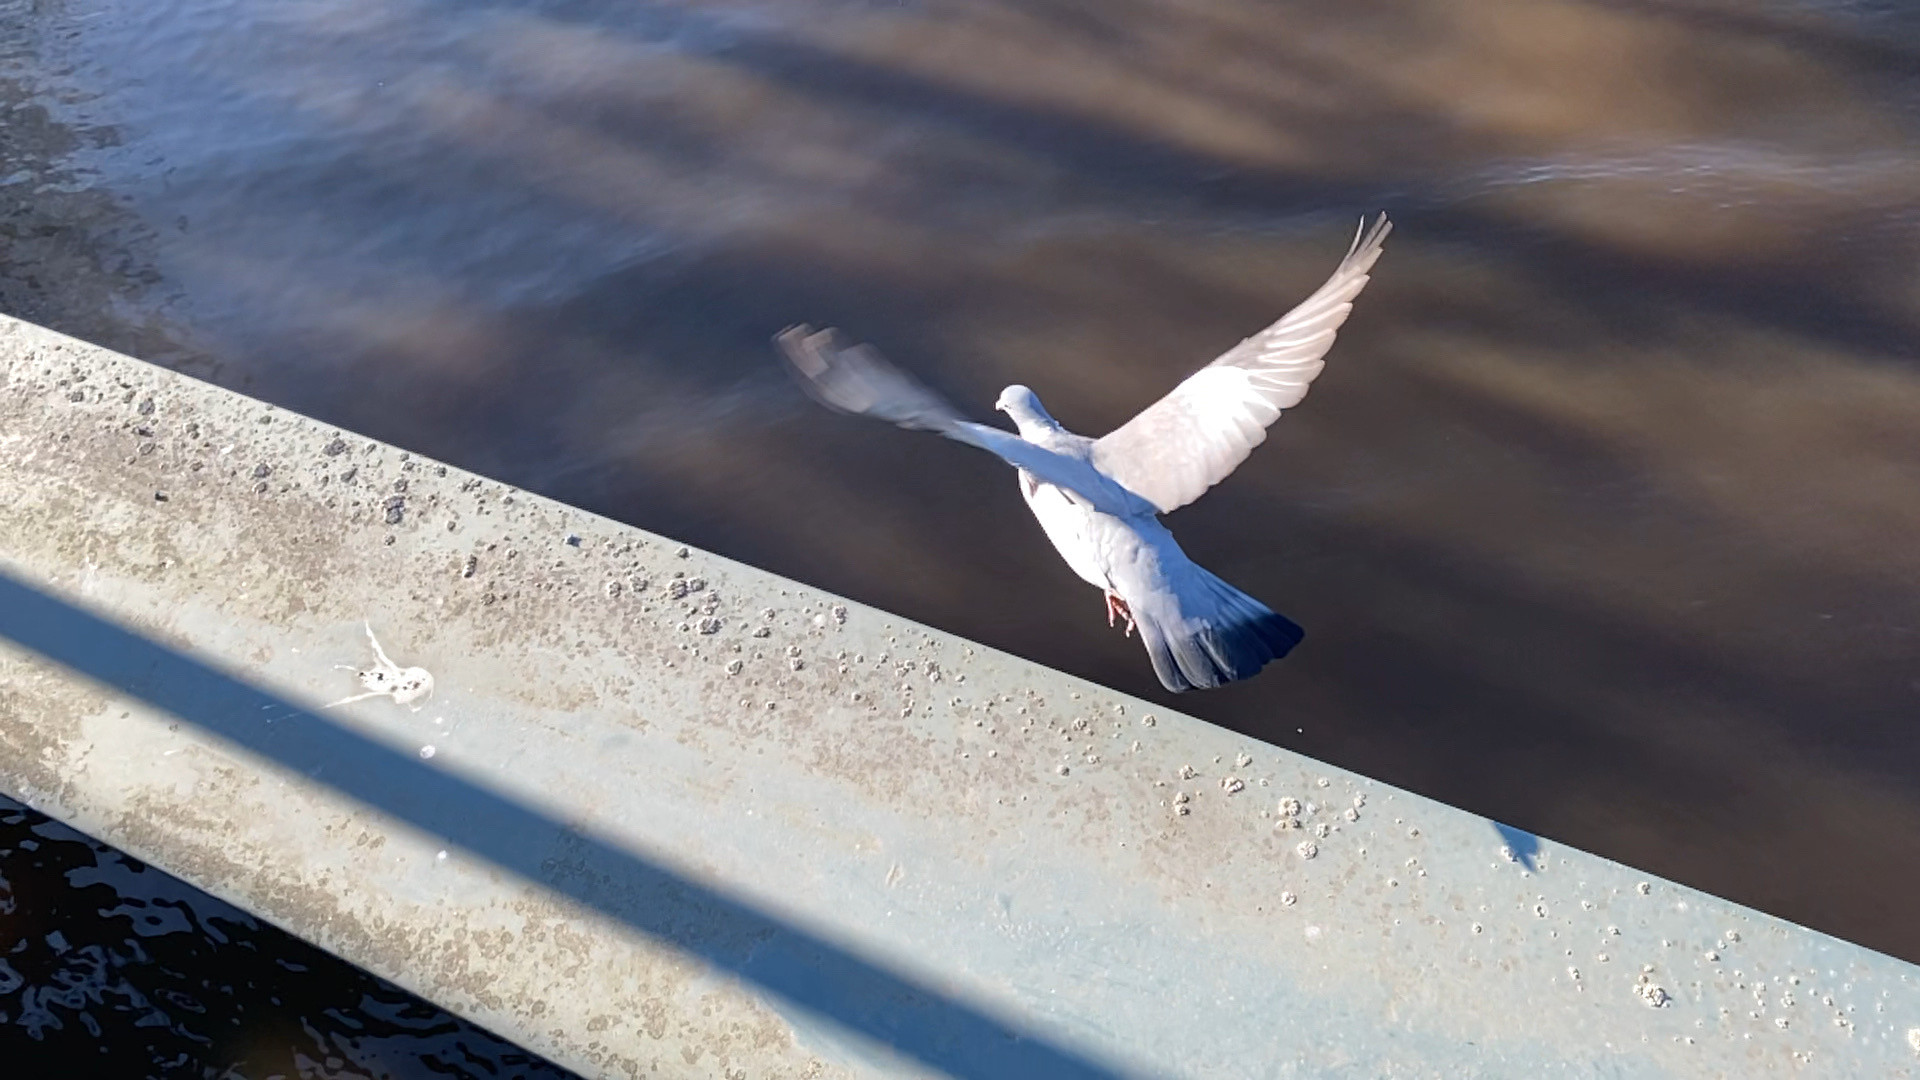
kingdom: Animalia
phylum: Chordata
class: Aves
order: Columbiformes
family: Columbidae
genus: Columba
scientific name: Columba palumbus
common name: Common wood pigeon
